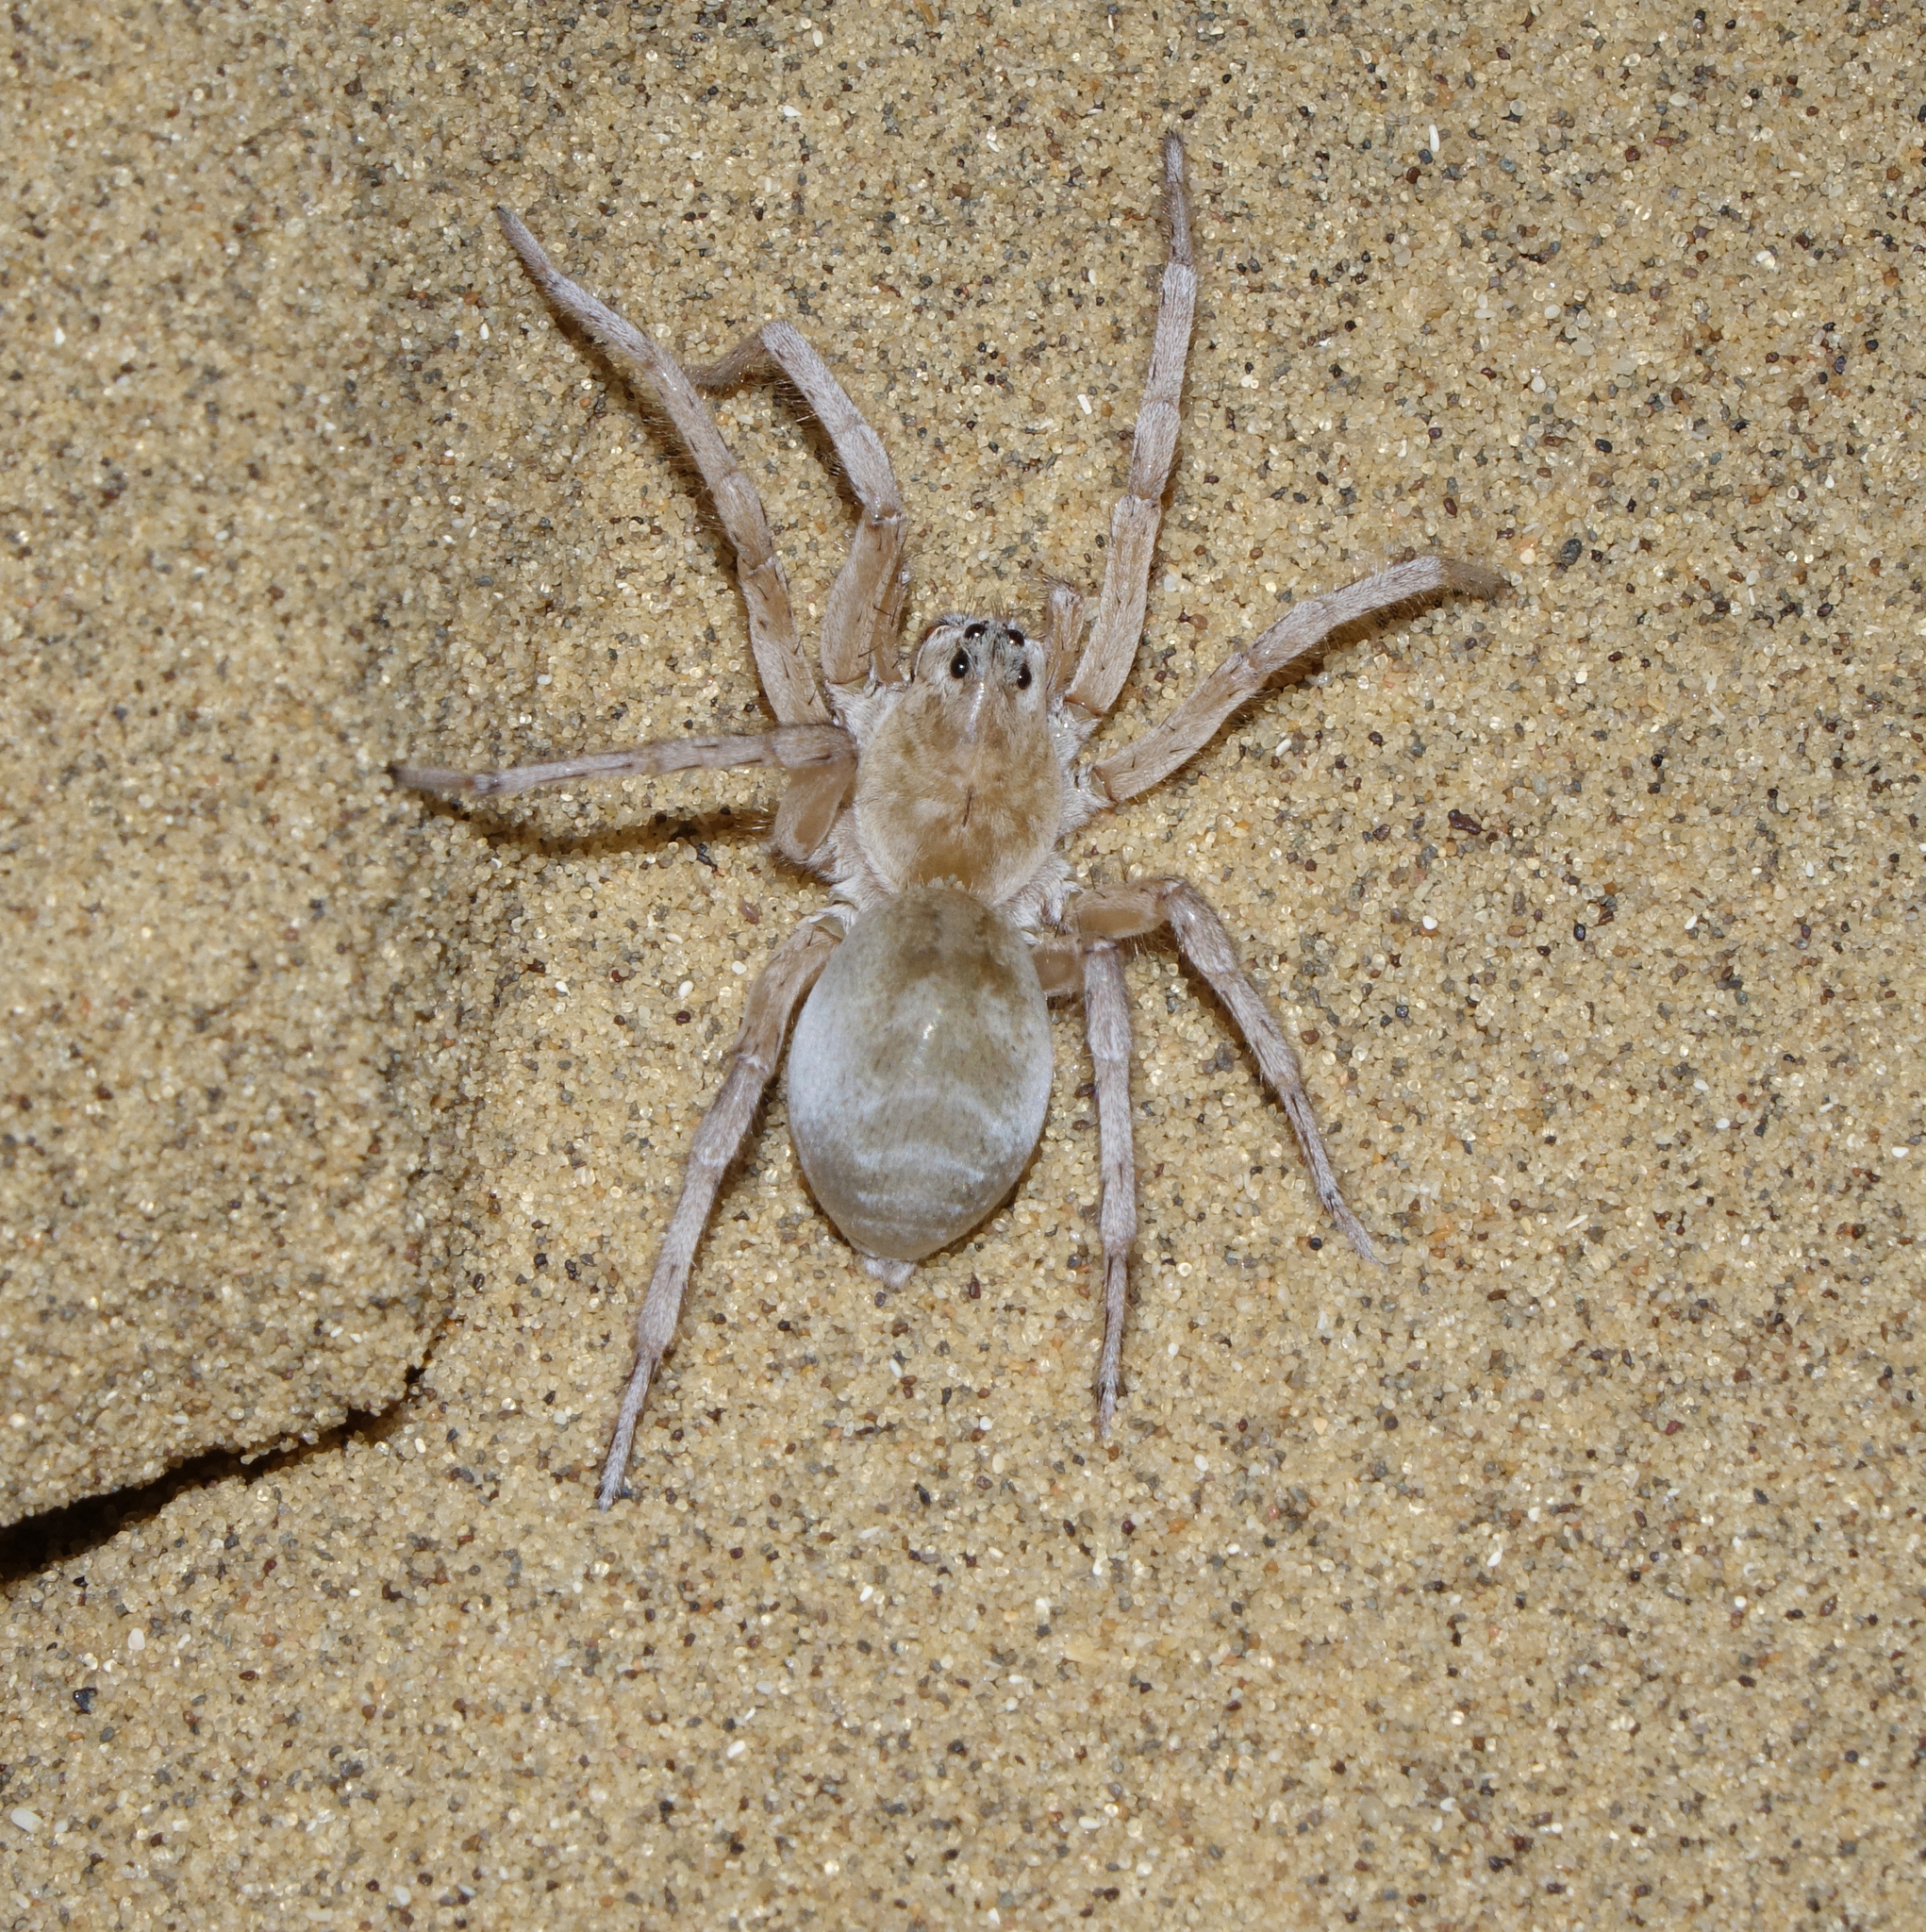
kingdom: Animalia
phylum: Arthropoda
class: Arachnida
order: Araneae
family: Lycosidae
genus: Arctosa
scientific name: Arctosa ravida
